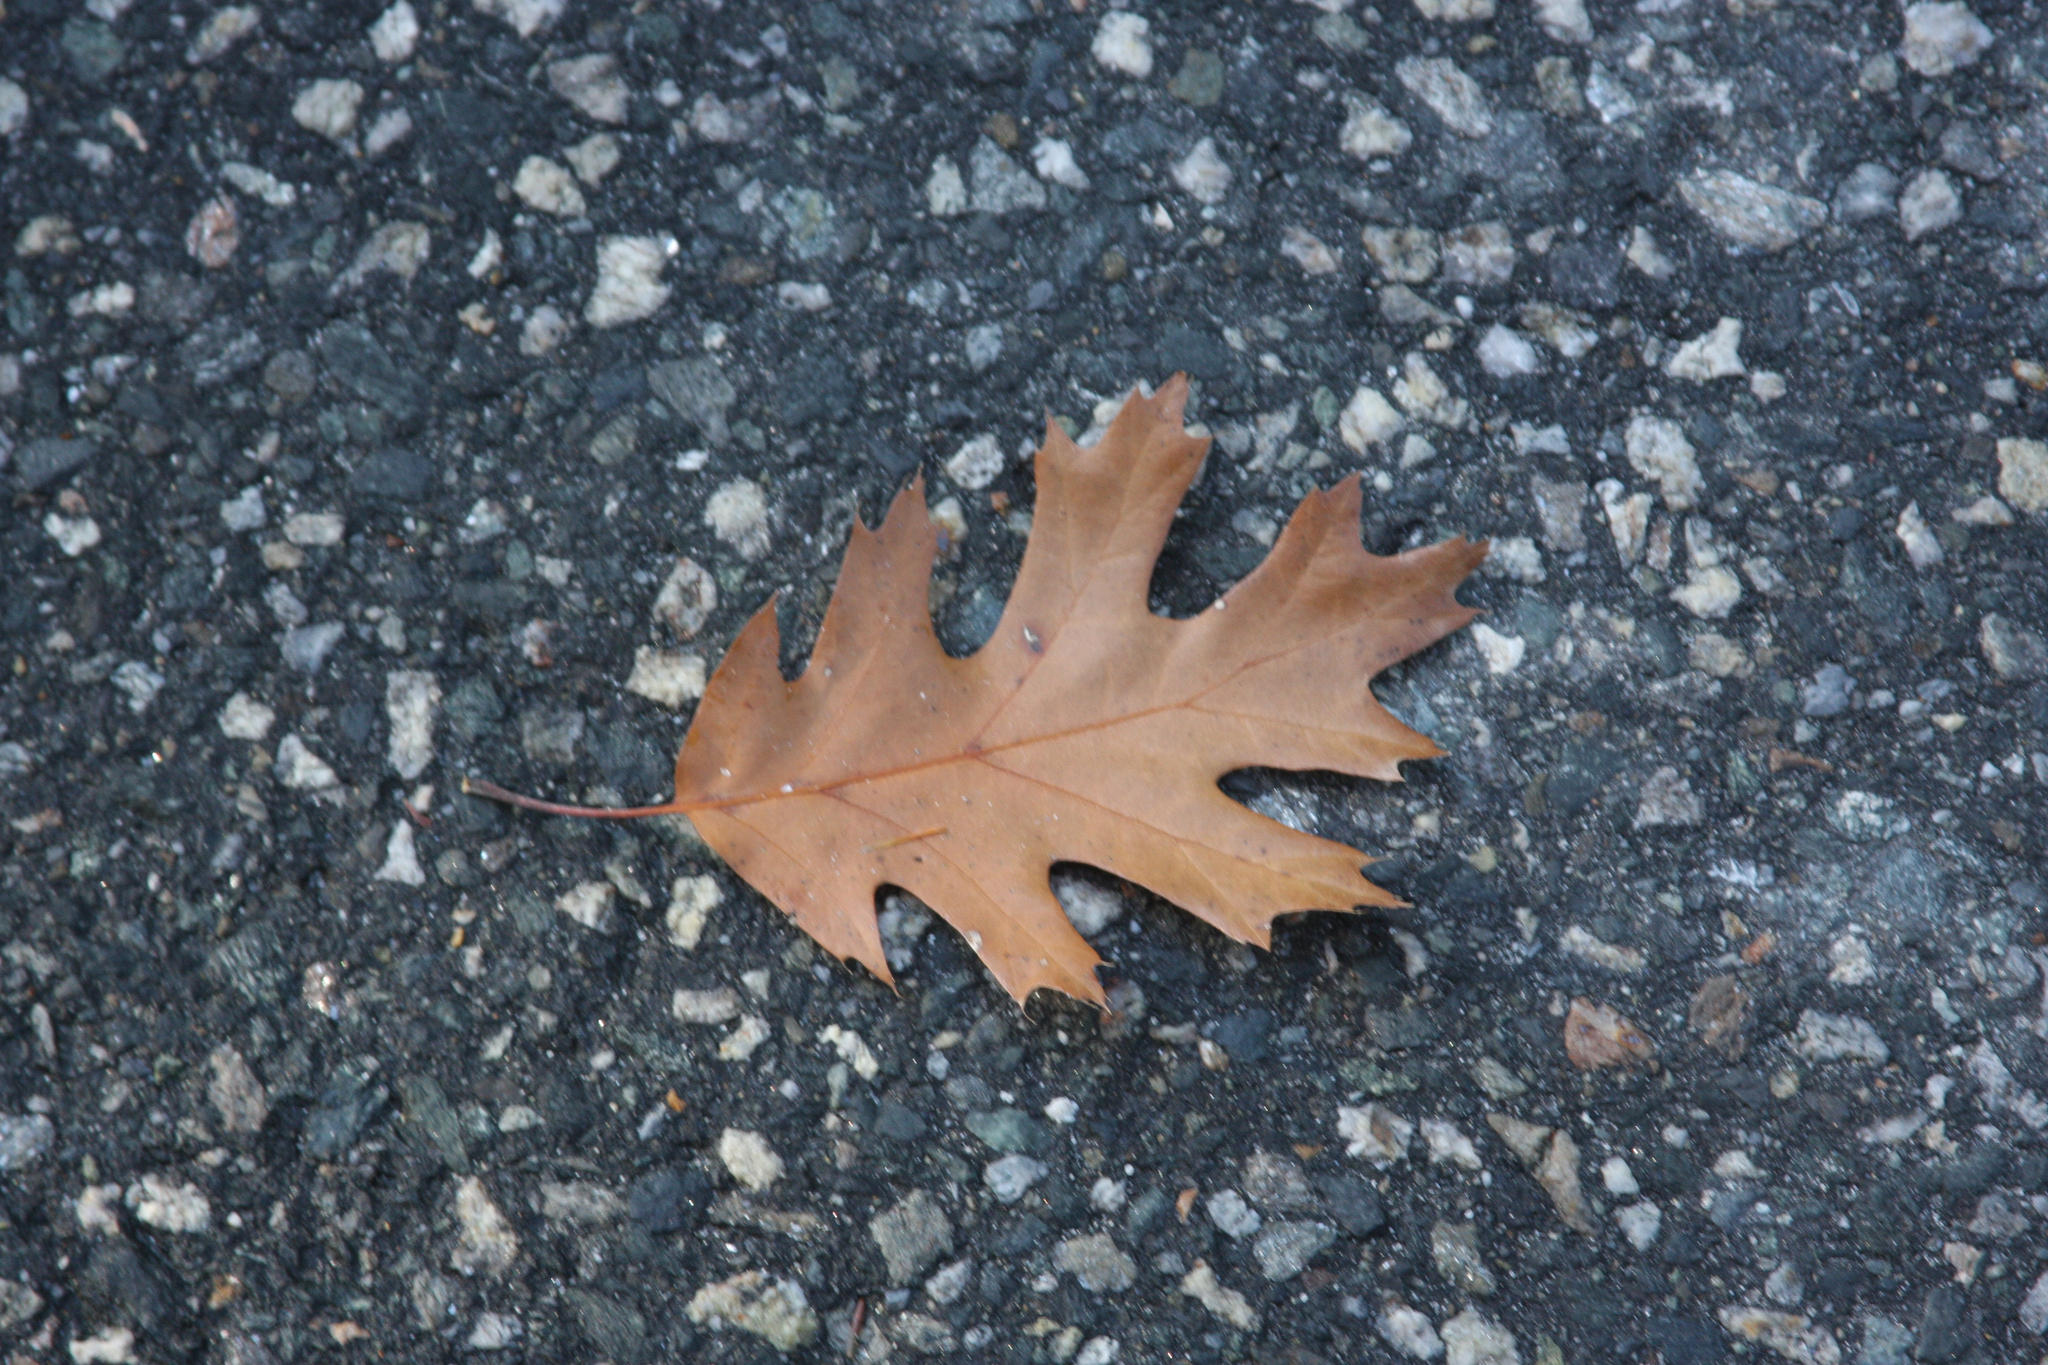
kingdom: Plantae
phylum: Tracheophyta
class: Magnoliopsida
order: Fagales
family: Fagaceae
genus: Quercus
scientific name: Quercus rubra
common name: Red oak
